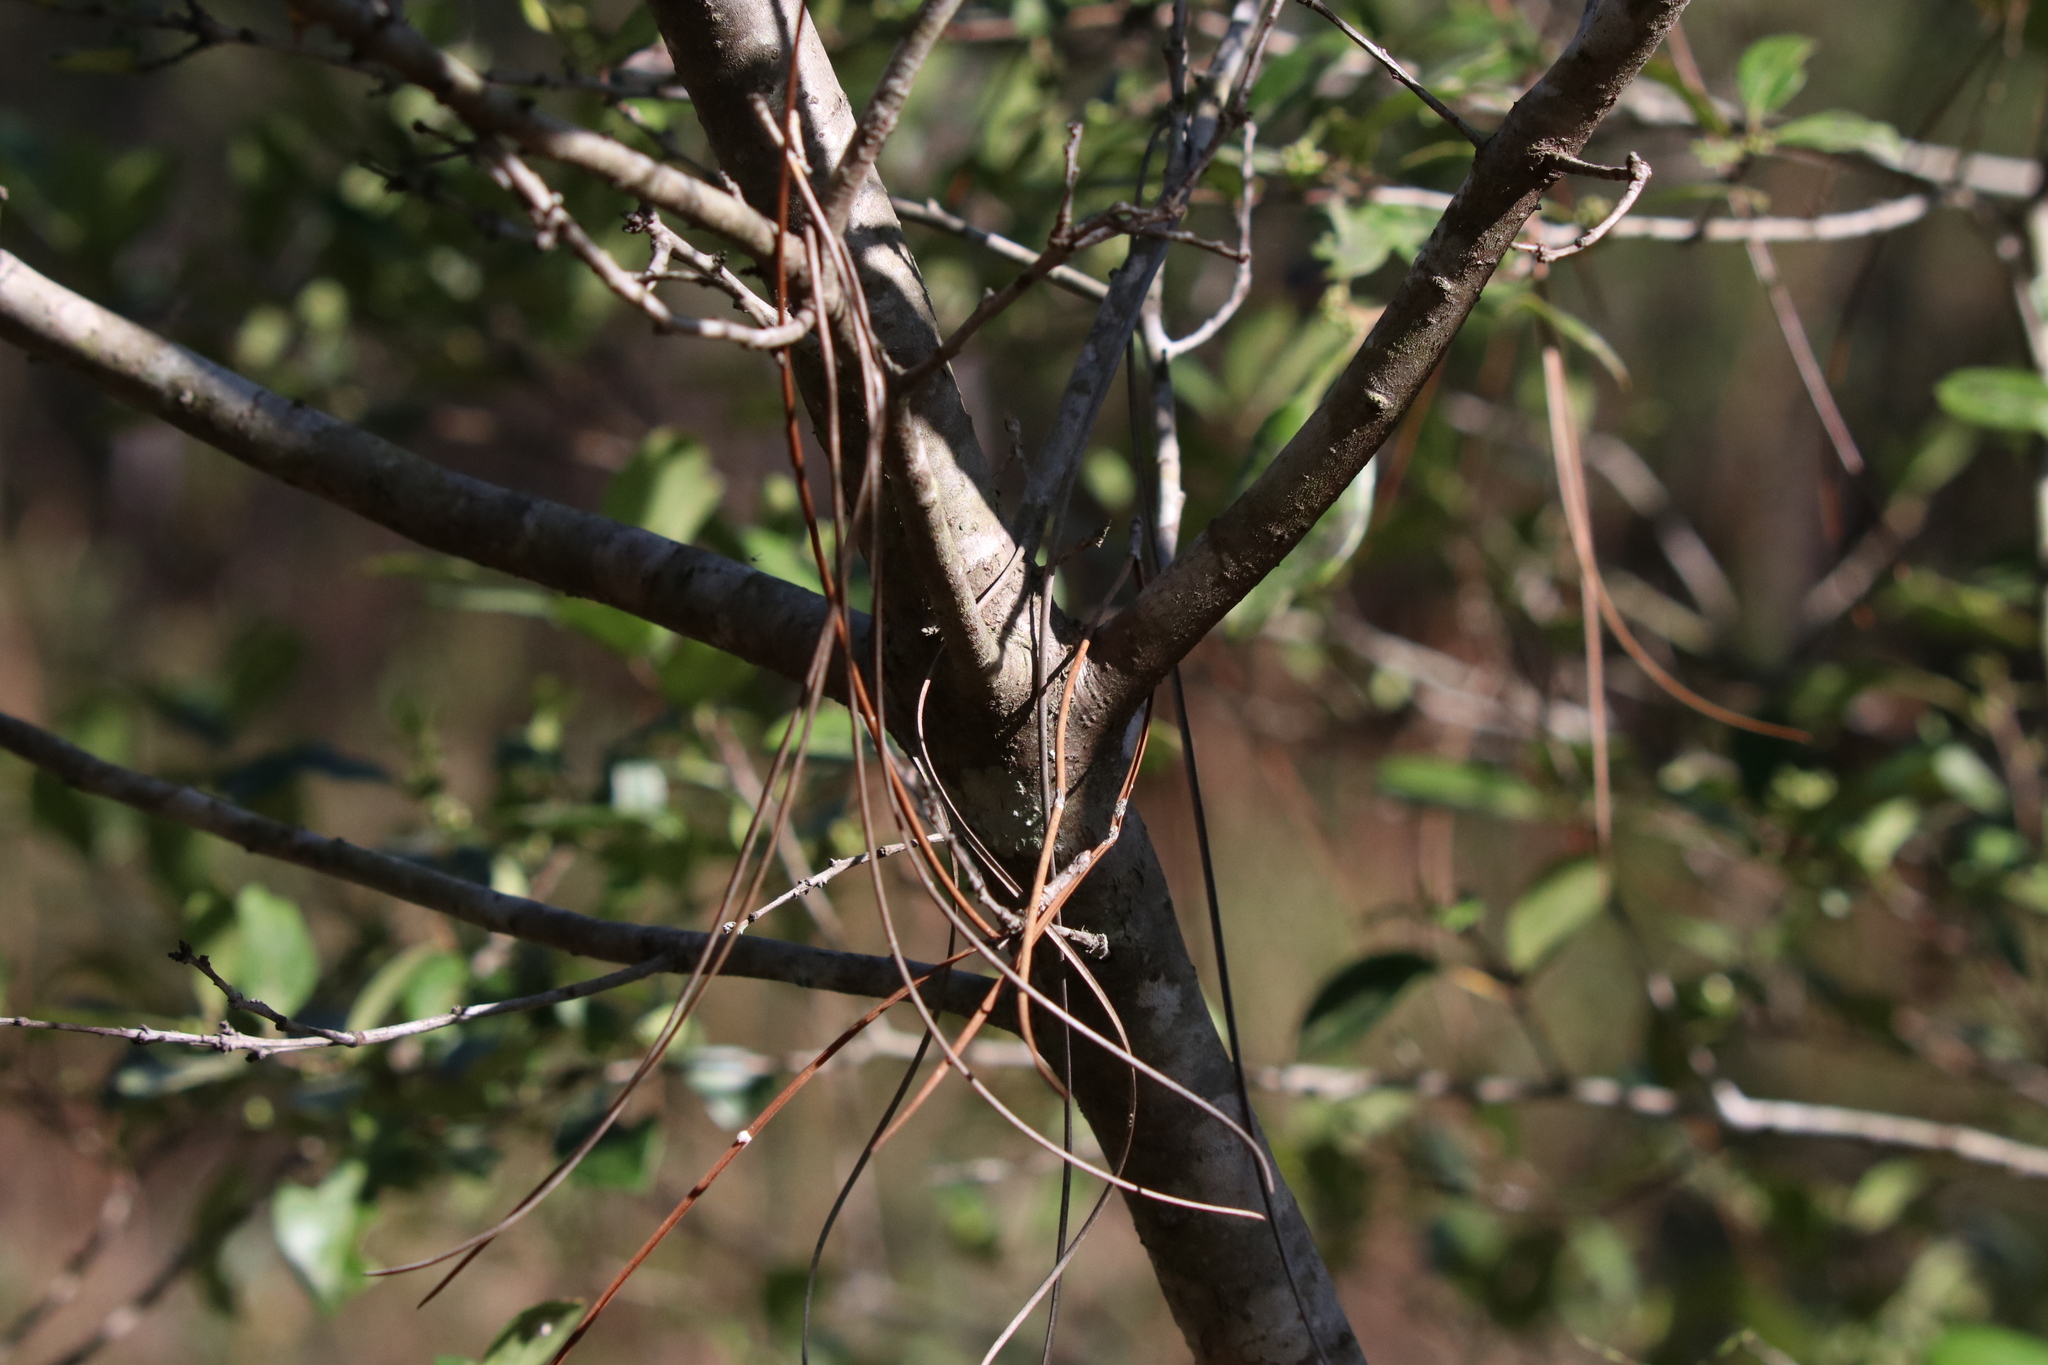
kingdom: Plantae
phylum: Tracheophyta
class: Magnoliopsida
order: Aquifoliales
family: Aquifoliaceae
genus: Ilex
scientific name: Ilex glabra
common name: Bitter gallberry
